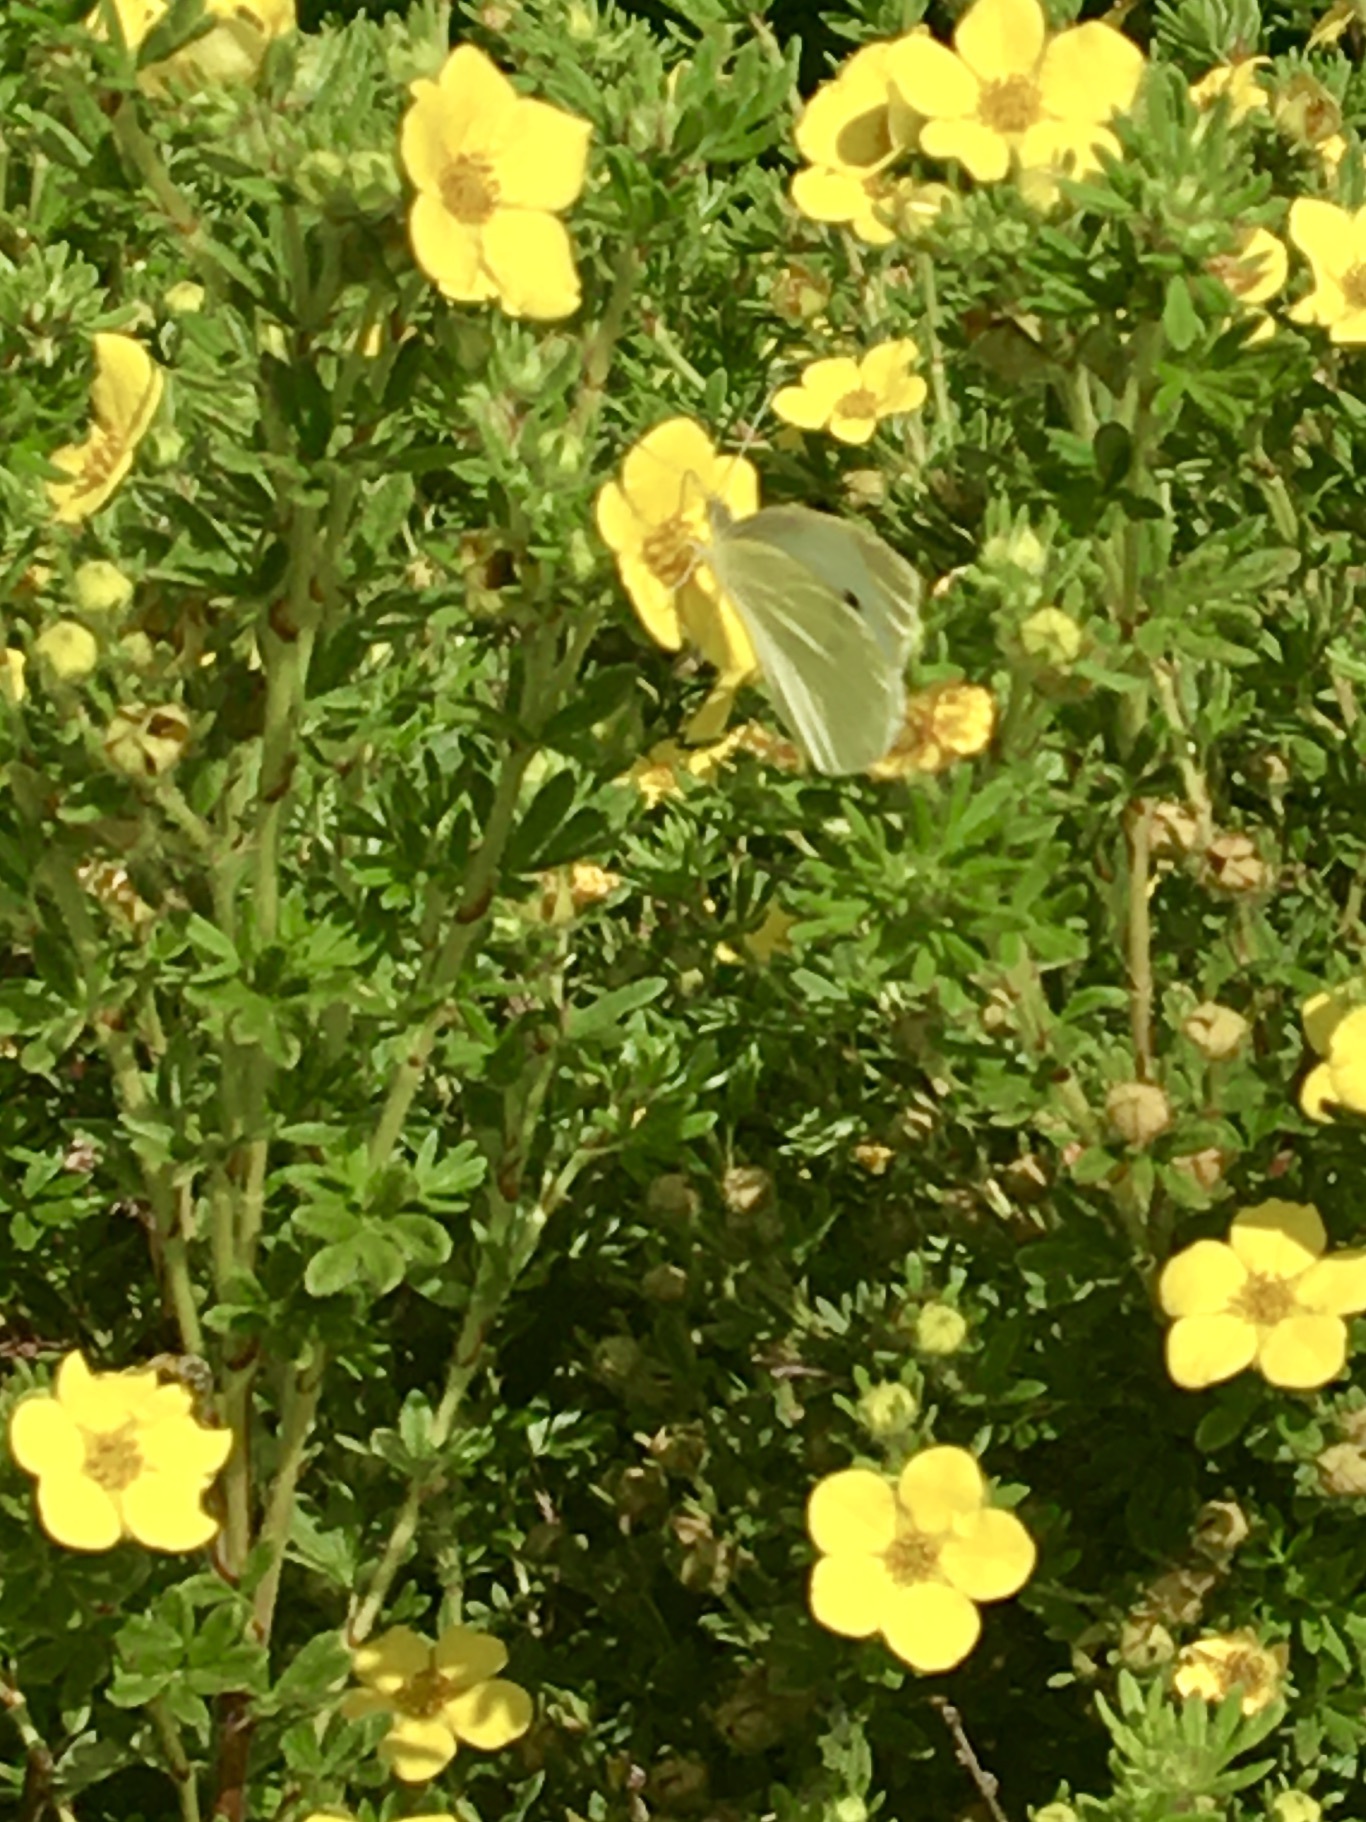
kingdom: Animalia
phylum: Arthropoda
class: Insecta
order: Lepidoptera
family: Pieridae
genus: Pieris
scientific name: Pieris rapae
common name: Small white
